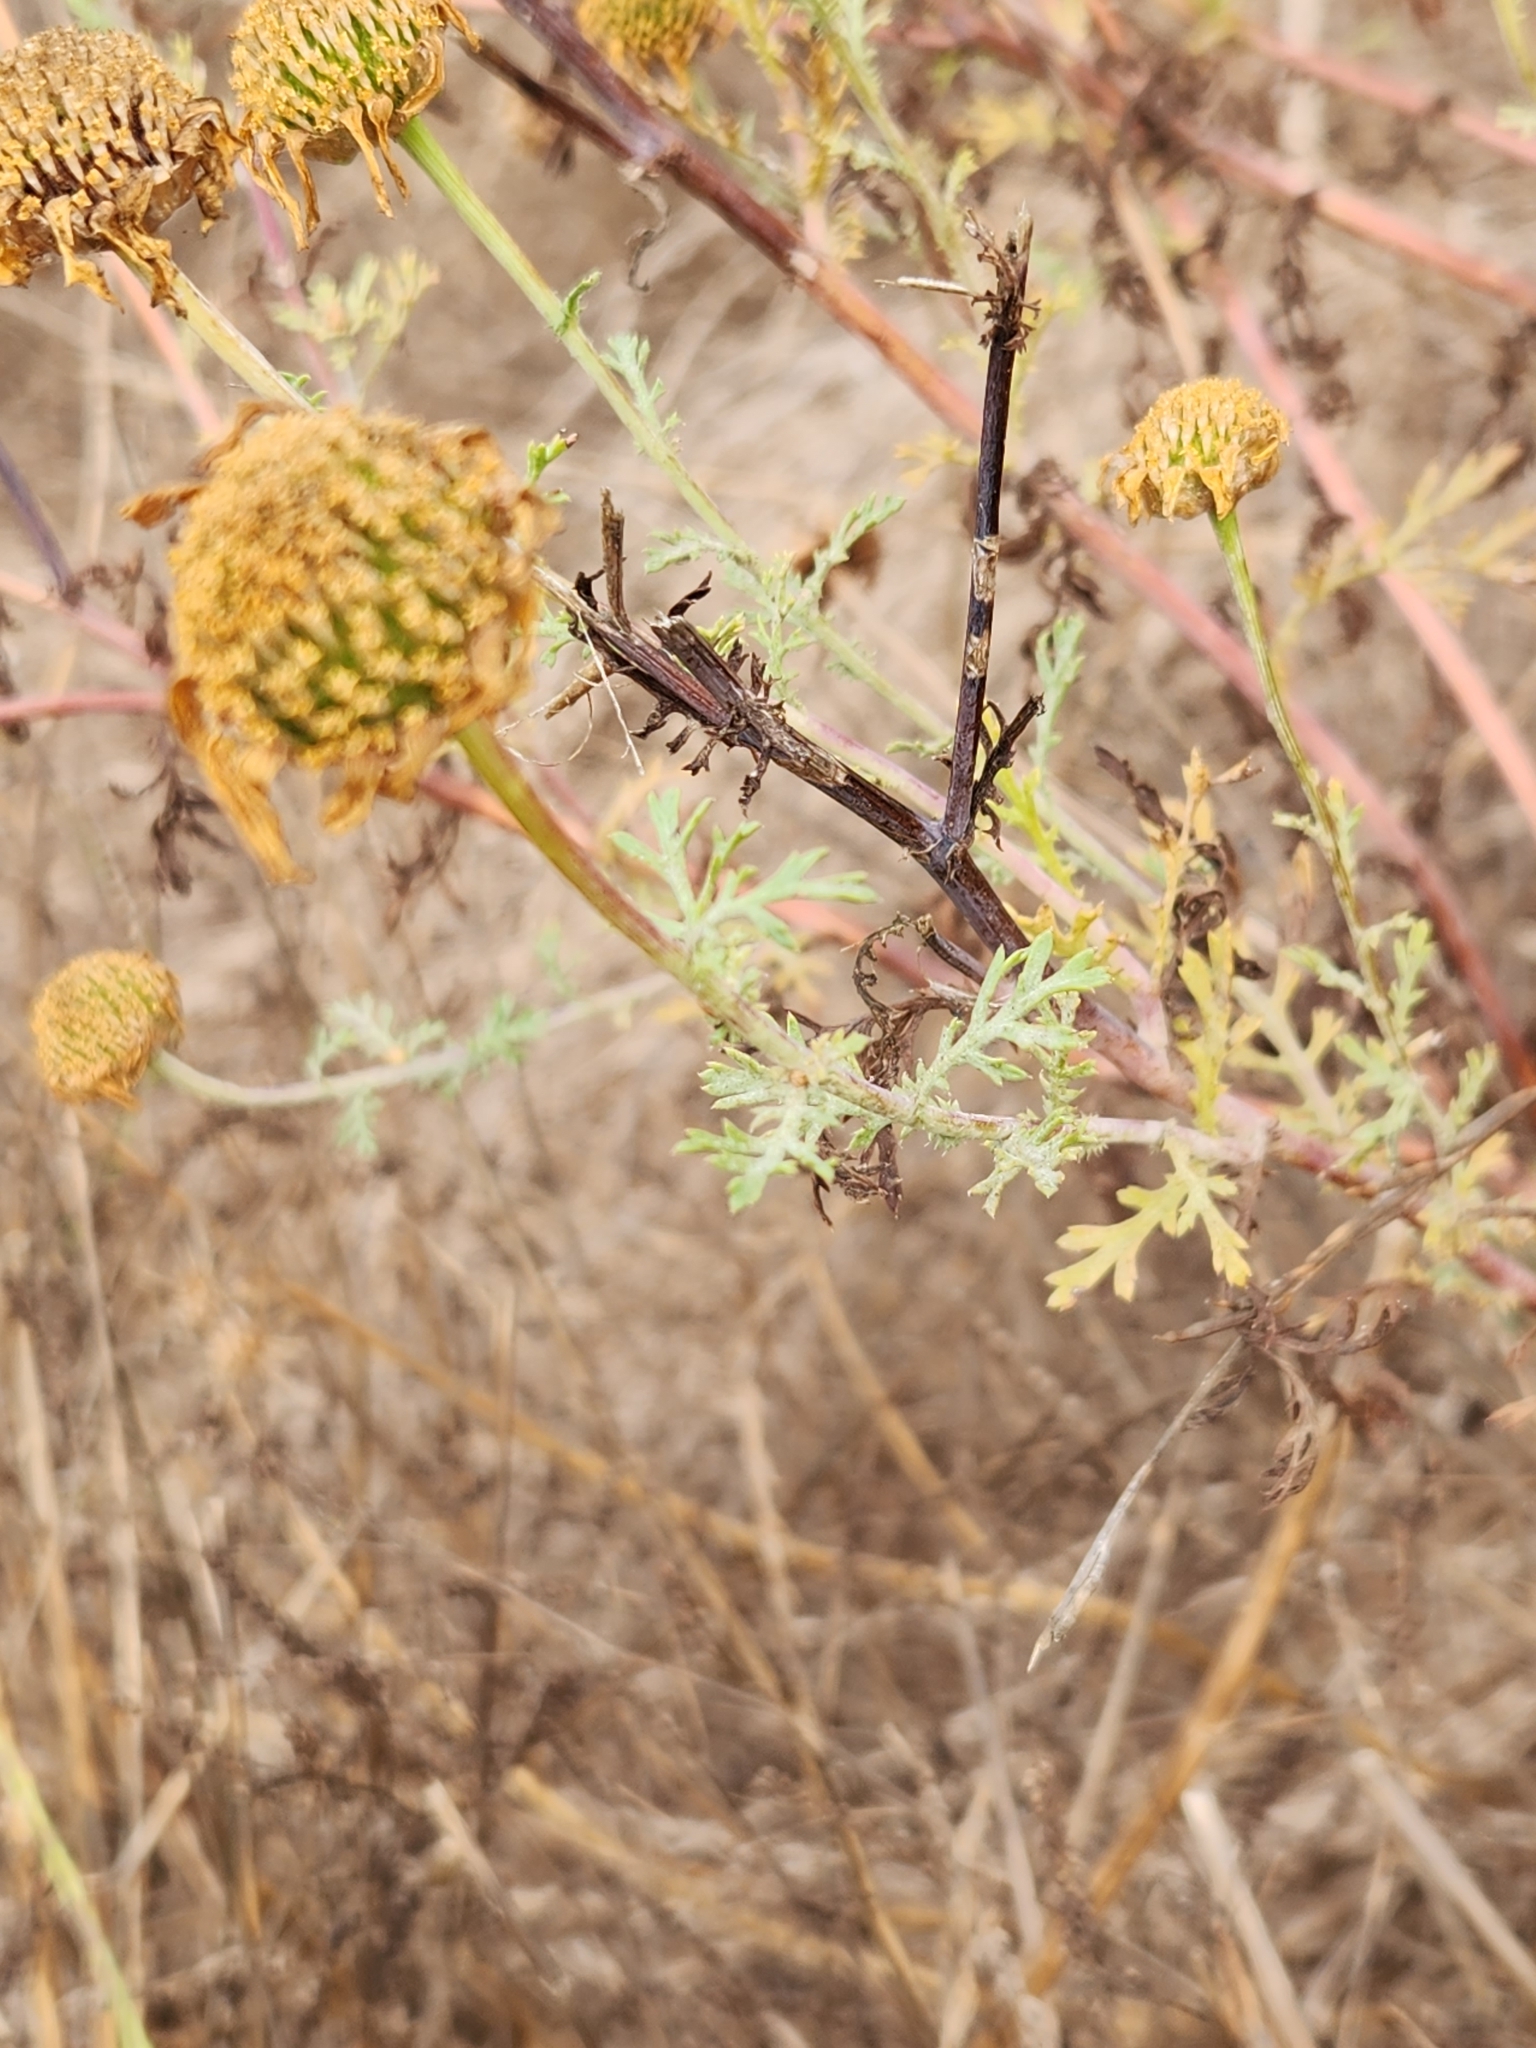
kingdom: Plantae
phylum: Tracheophyta
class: Magnoliopsida
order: Asterales
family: Asteraceae
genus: Glebionis
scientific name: Glebionis coronaria
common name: Crowndaisy
